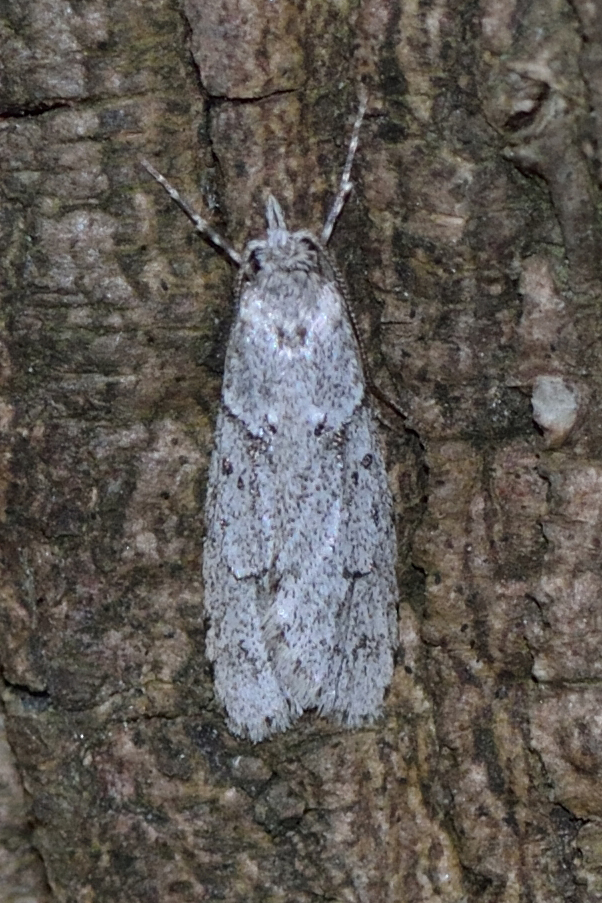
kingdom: Animalia
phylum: Arthropoda
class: Insecta
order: Lepidoptera
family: Lypusidae
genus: Diurnea
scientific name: Diurnea fagella
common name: March tubic
